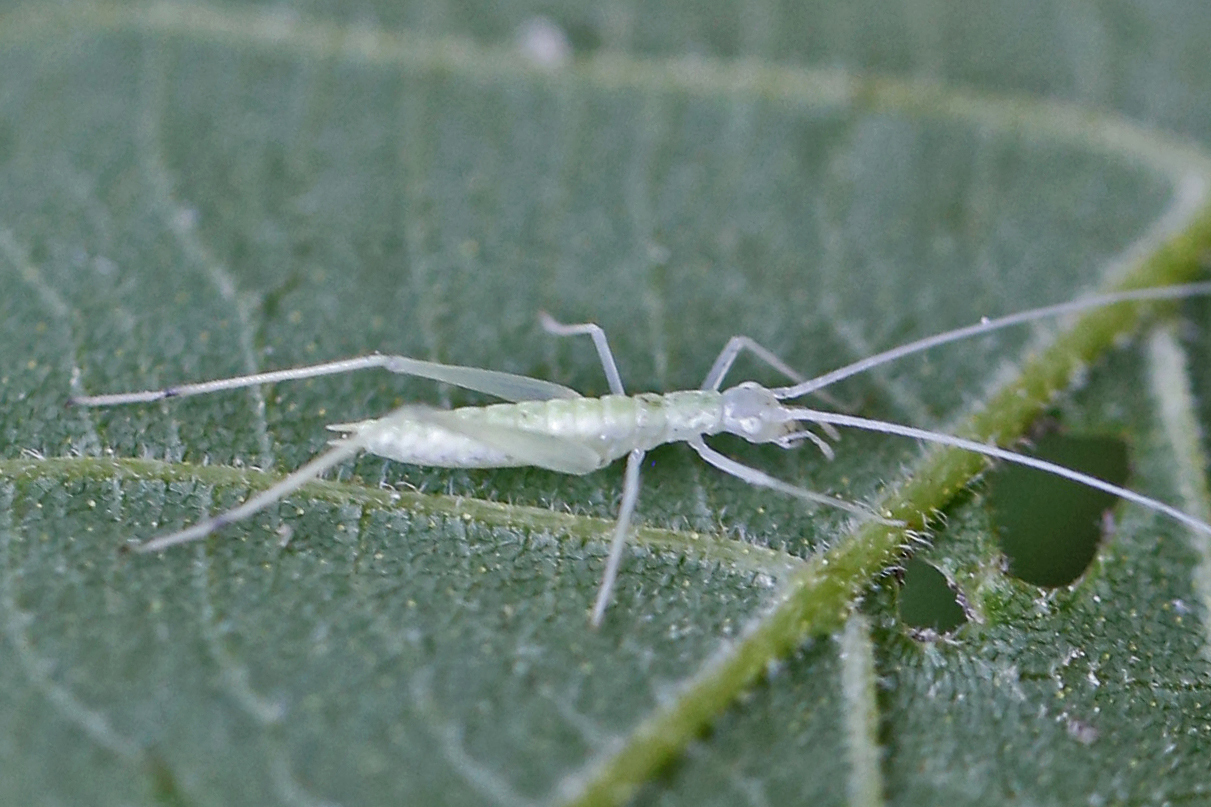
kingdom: Animalia
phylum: Arthropoda
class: Insecta
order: Orthoptera
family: Gryllidae
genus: Oecanthus
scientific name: Oecanthus niveus
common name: Narrow-winged tree cricket
